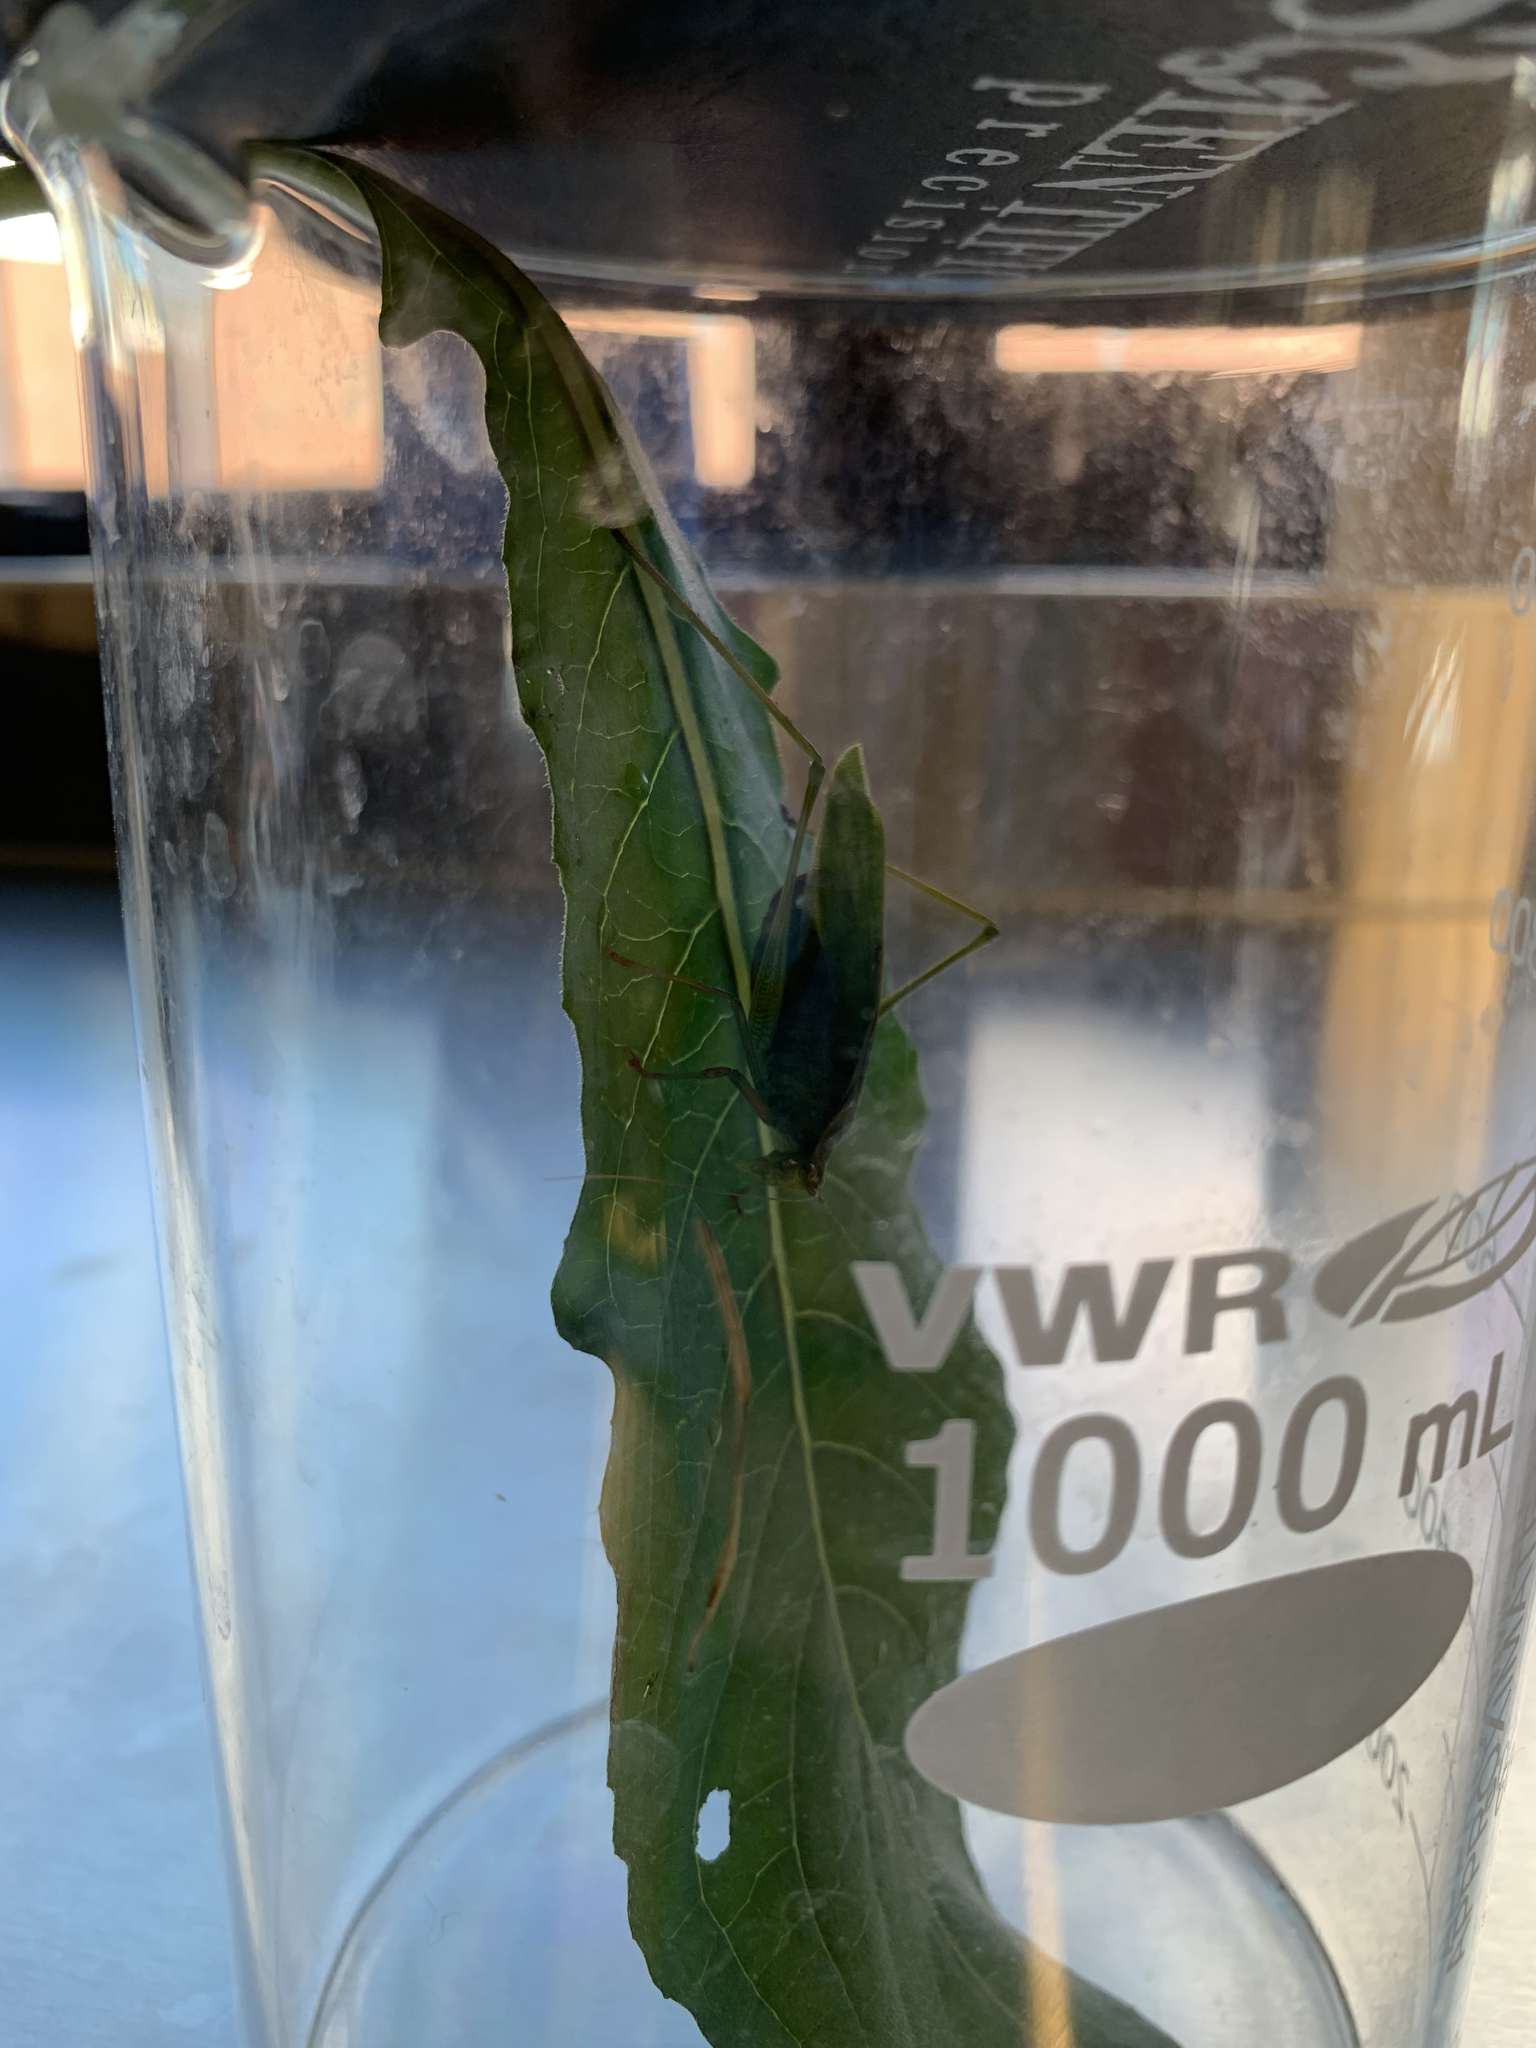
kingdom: Animalia
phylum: Arthropoda
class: Insecta
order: Orthoptera
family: Tettigoniidae
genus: Scudderia
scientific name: Scudderia furcata
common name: Fork-tailed bush katydid
